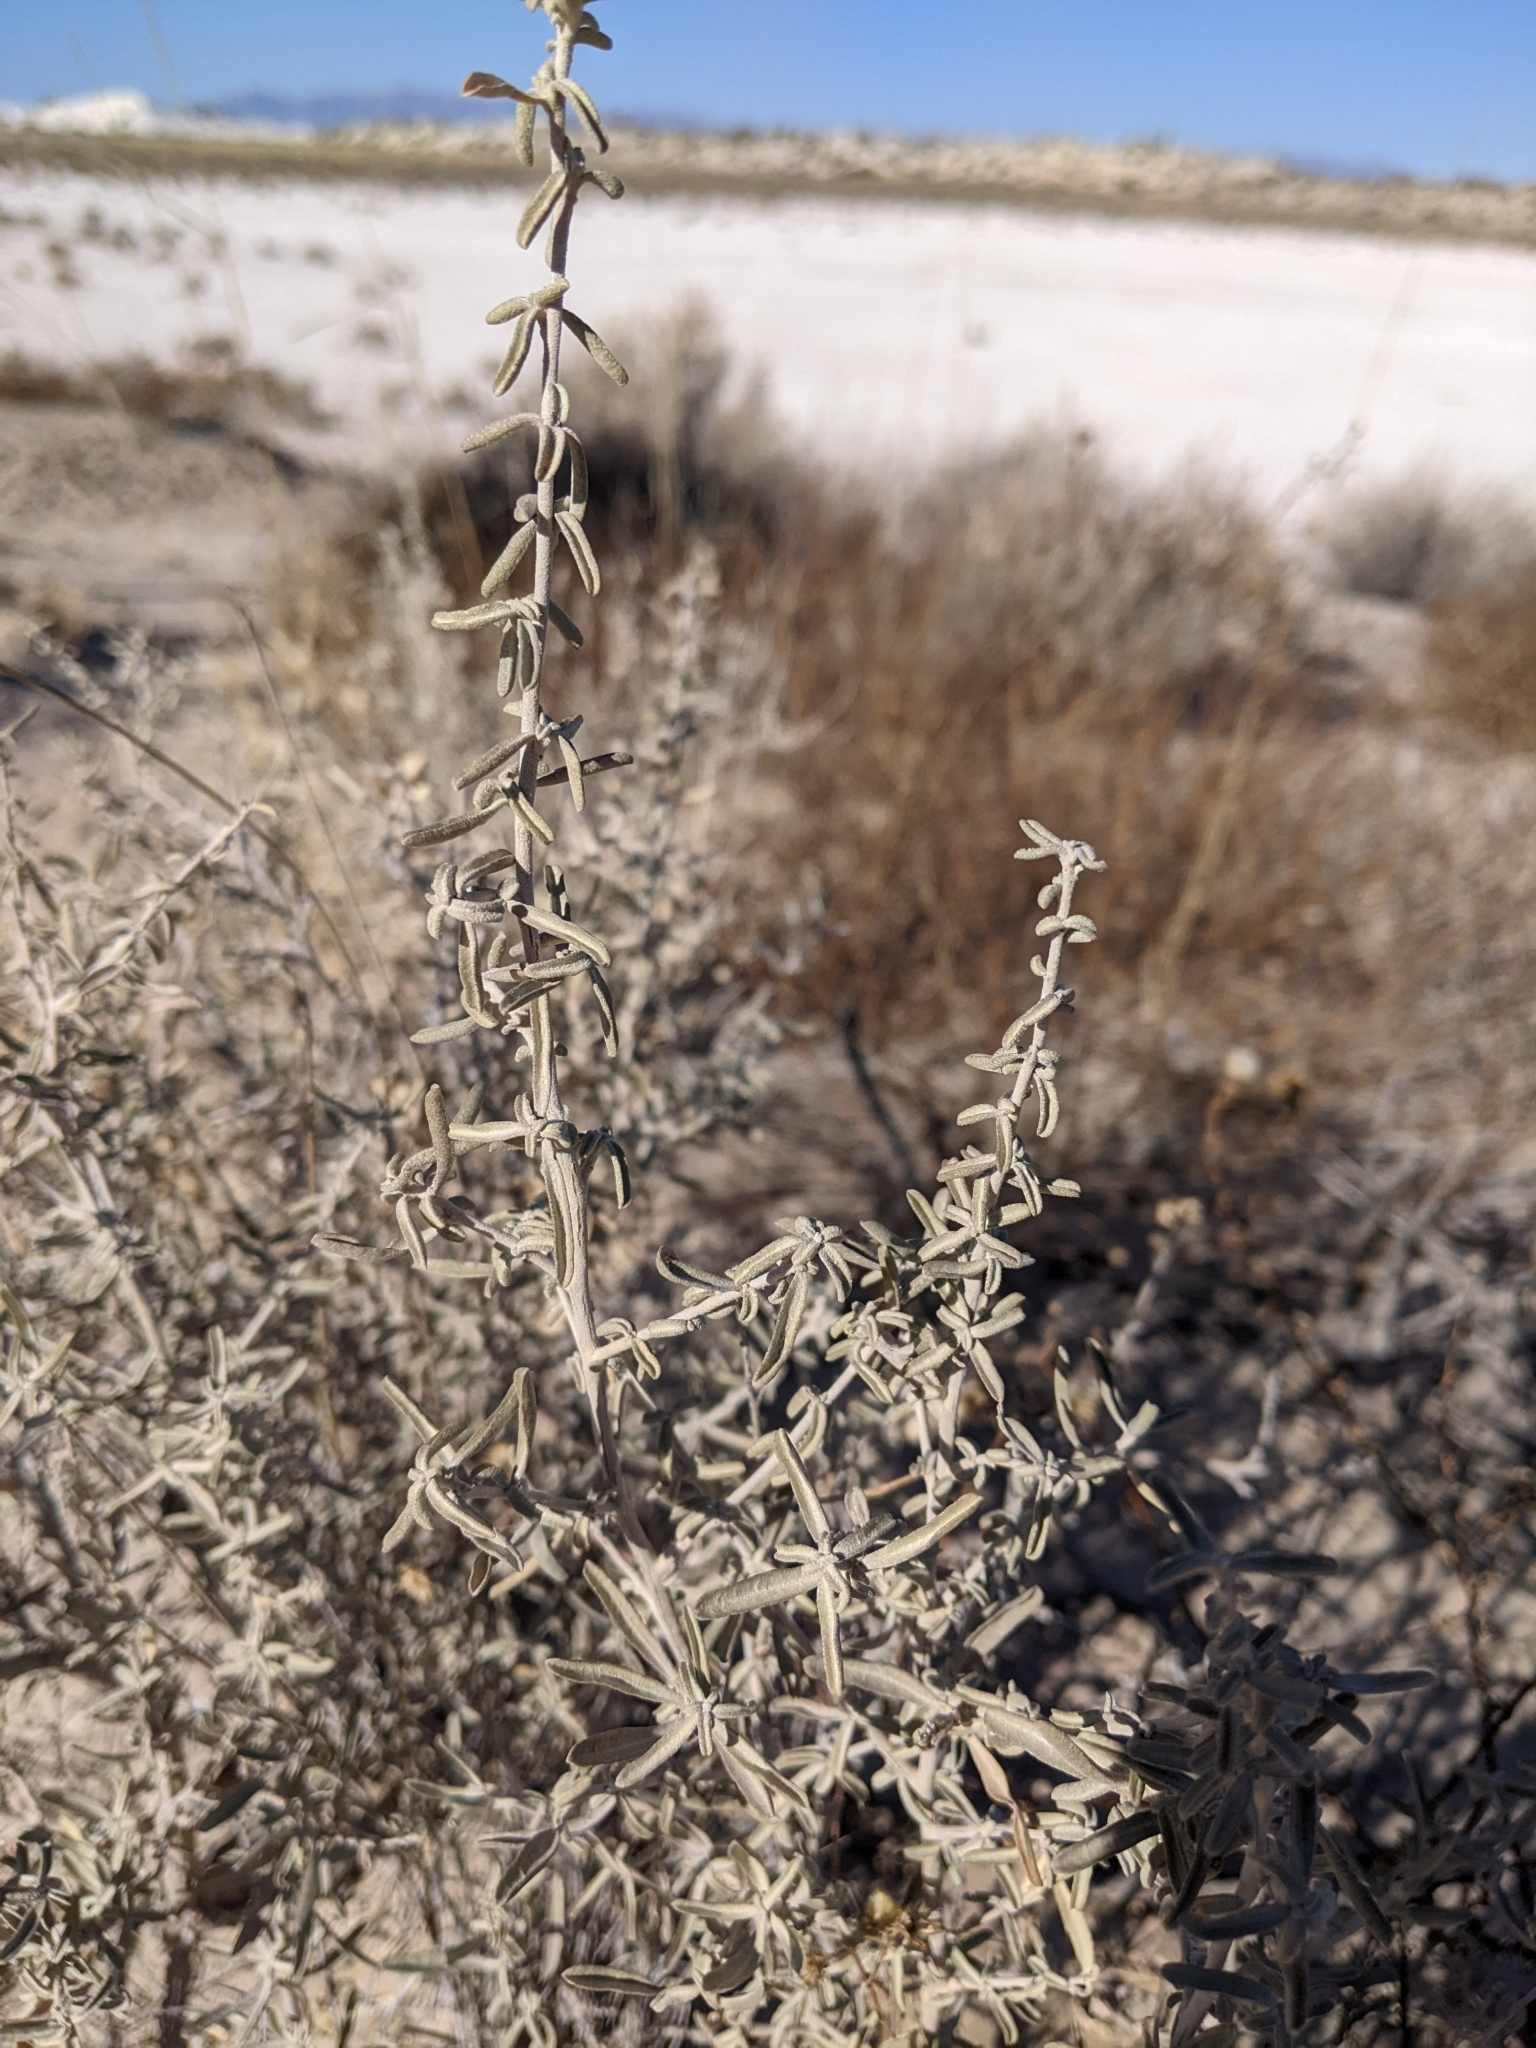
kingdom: Plantae
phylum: Tracheophyta
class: Magnoliopsida
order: Caryophyllales
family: Amaranthaceae
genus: Atriplex
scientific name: Atriplex canescens
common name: Four-wing saltbush
